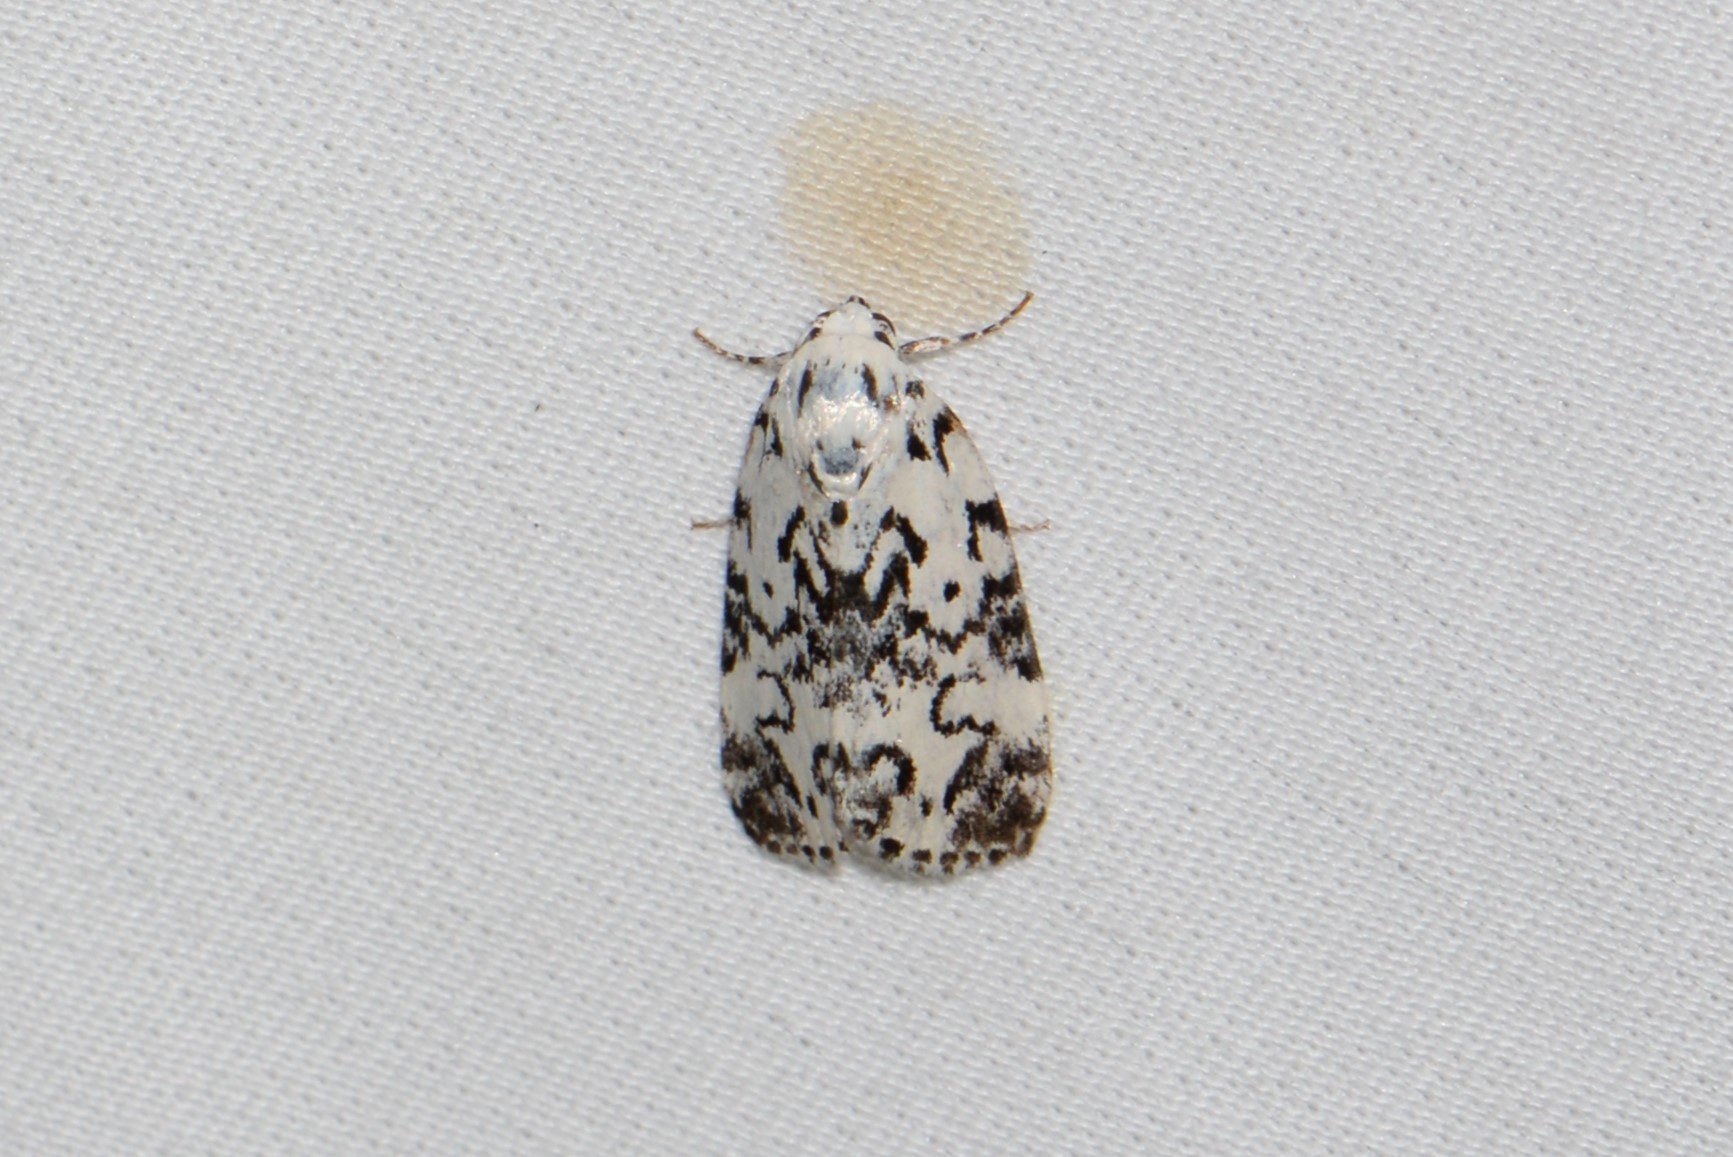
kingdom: Animalia
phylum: Arthropoda
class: Insecta
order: Lepidoptera
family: Noctuidae
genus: Polygrammate
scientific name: Polygrammate hebraeicum
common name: Hebrew moth
